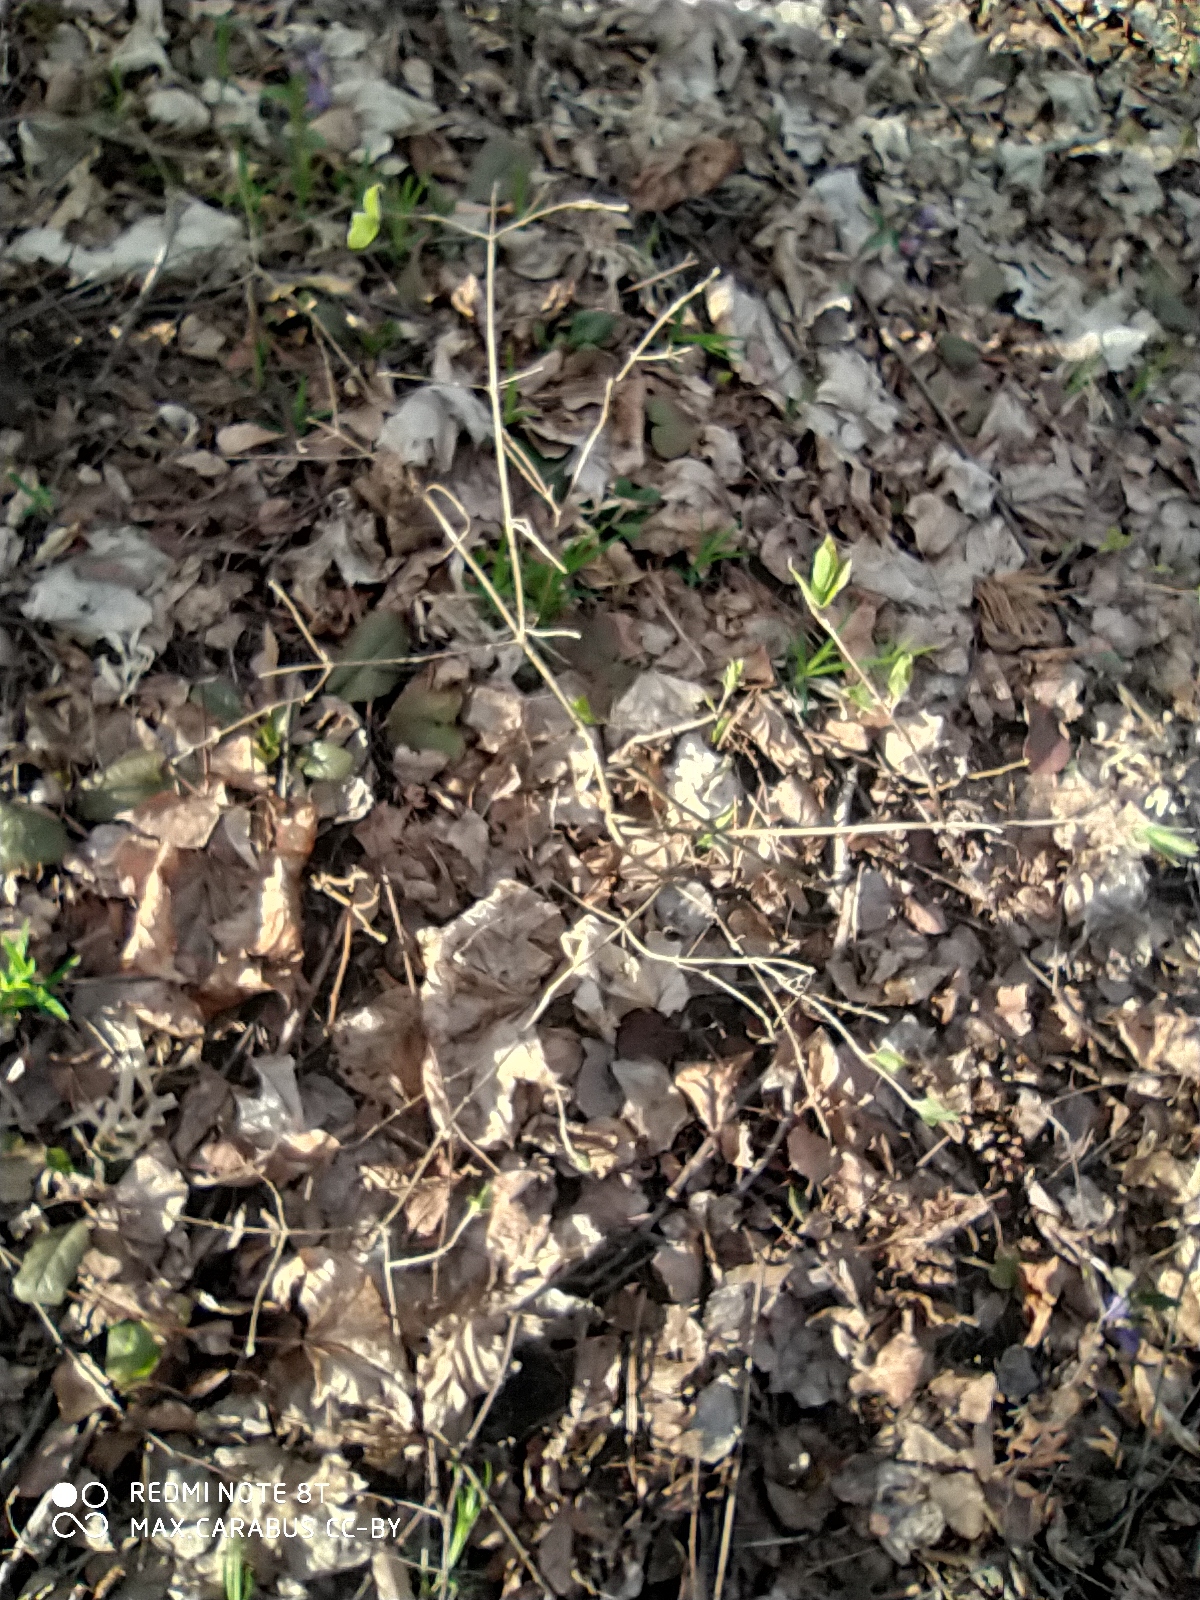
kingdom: Plantae
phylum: Tracheophyta
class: Magnoliopsida
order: Dipsacales
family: Caprifoliaceae
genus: Lonicera
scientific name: Lonicera xylosteum
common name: Fly honeysuckle
